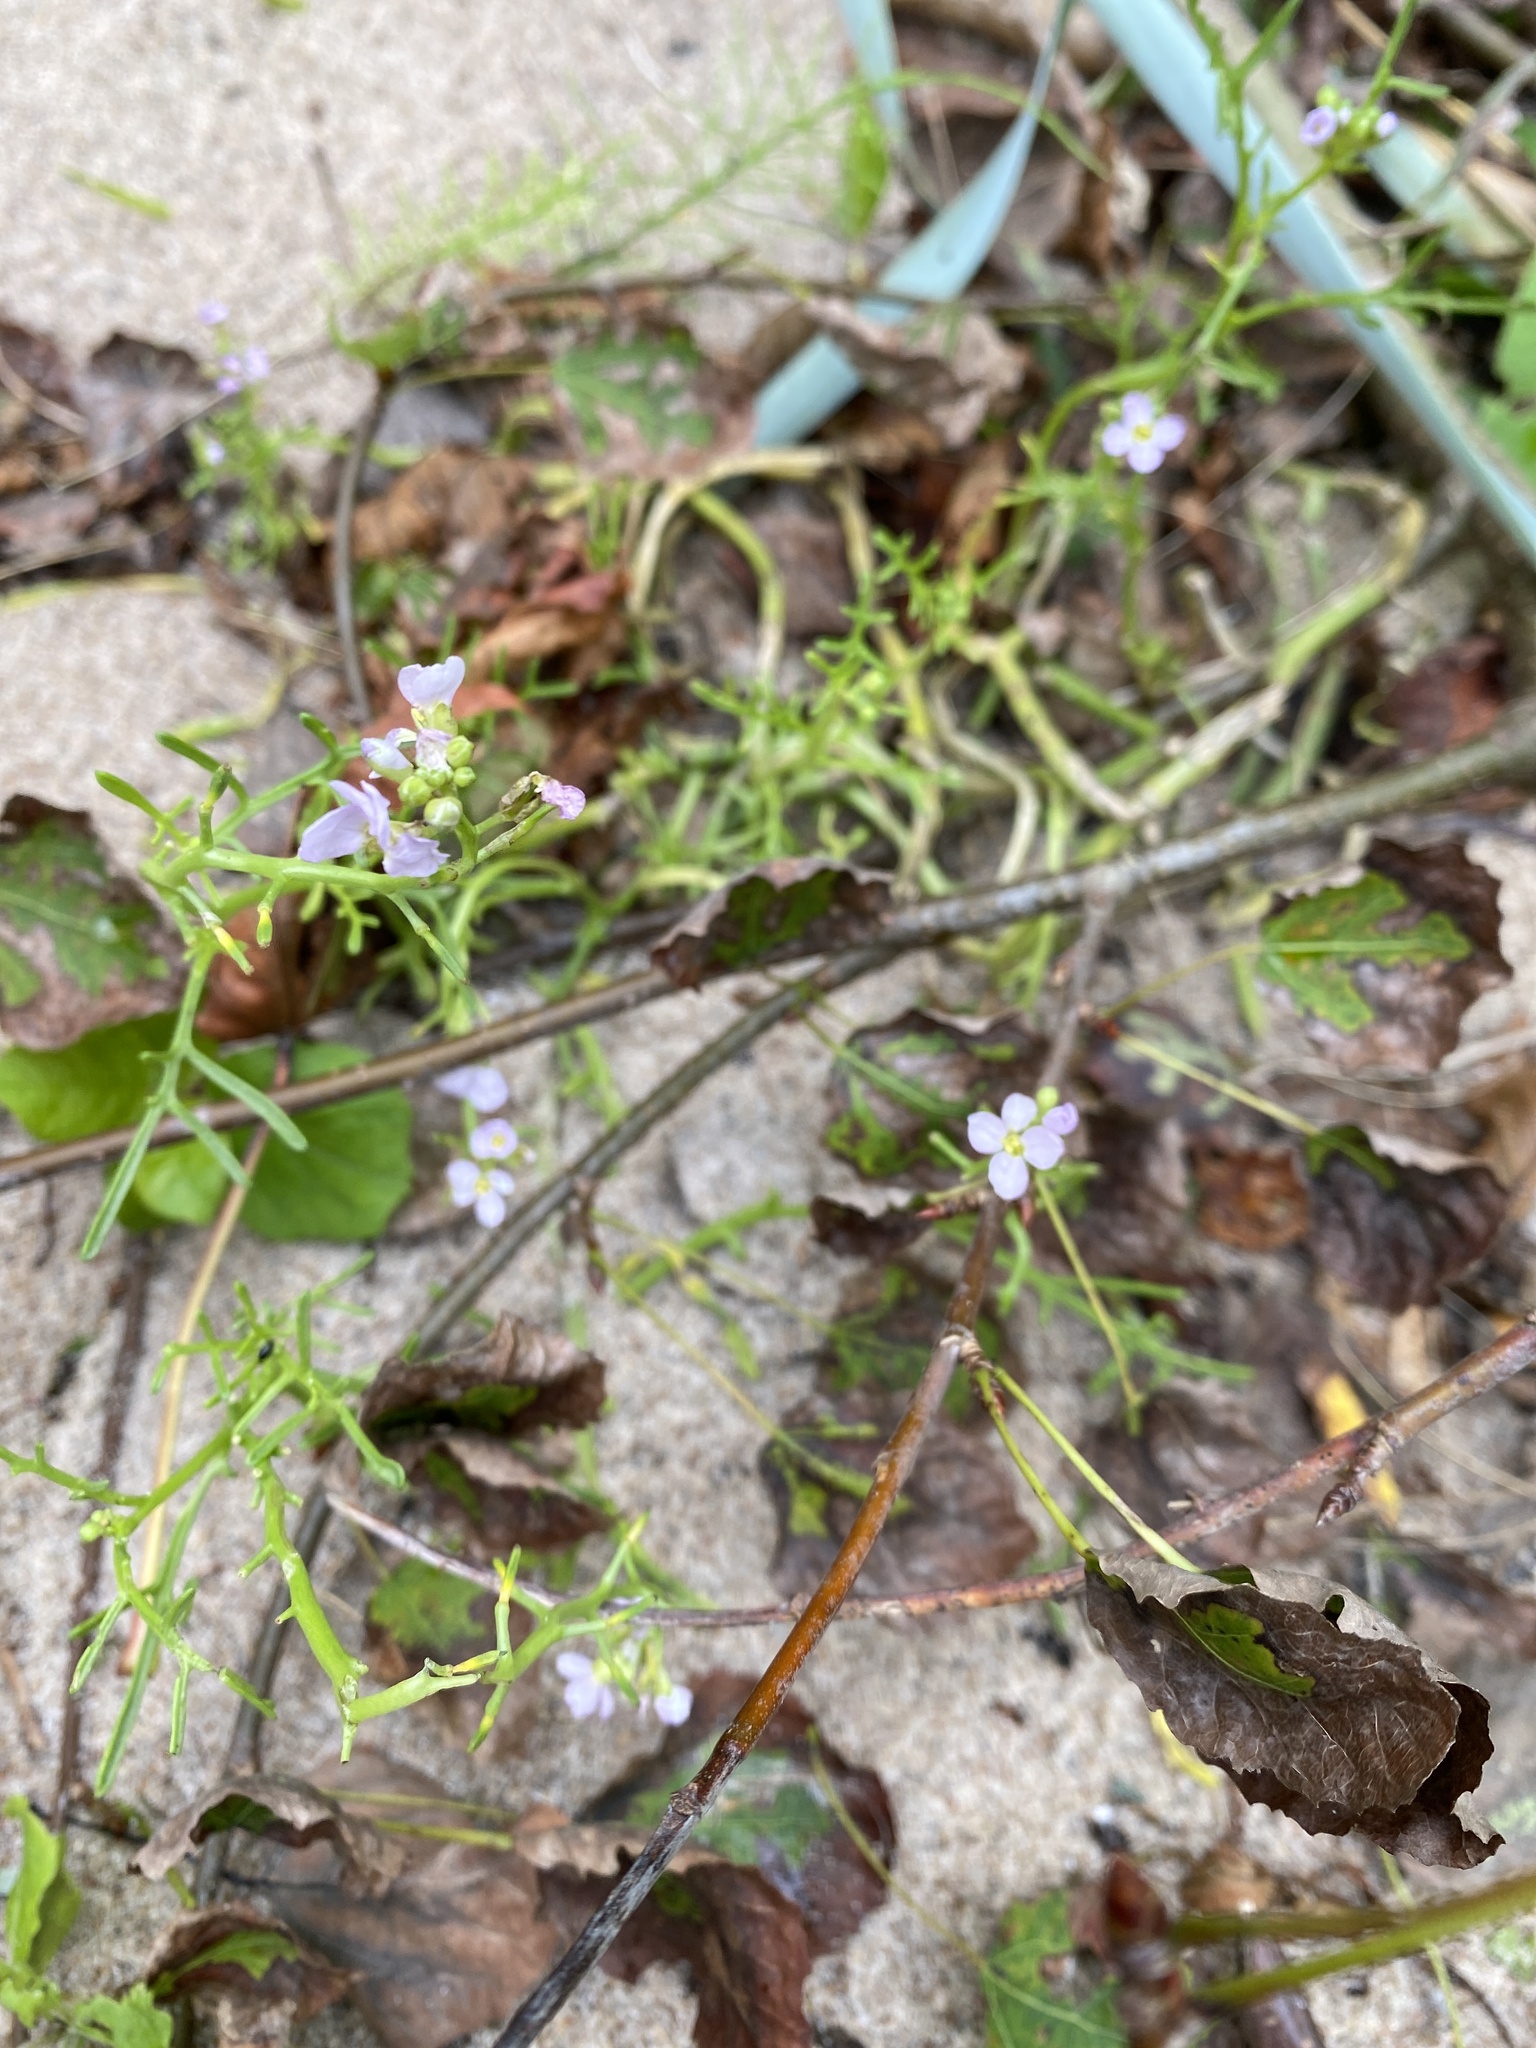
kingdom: Plantae
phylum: Tracheophyta
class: Magnoliopsida
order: Brassicales
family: Brassicaceae
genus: Cakile
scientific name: Cakile maritima
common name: Sea rocket
